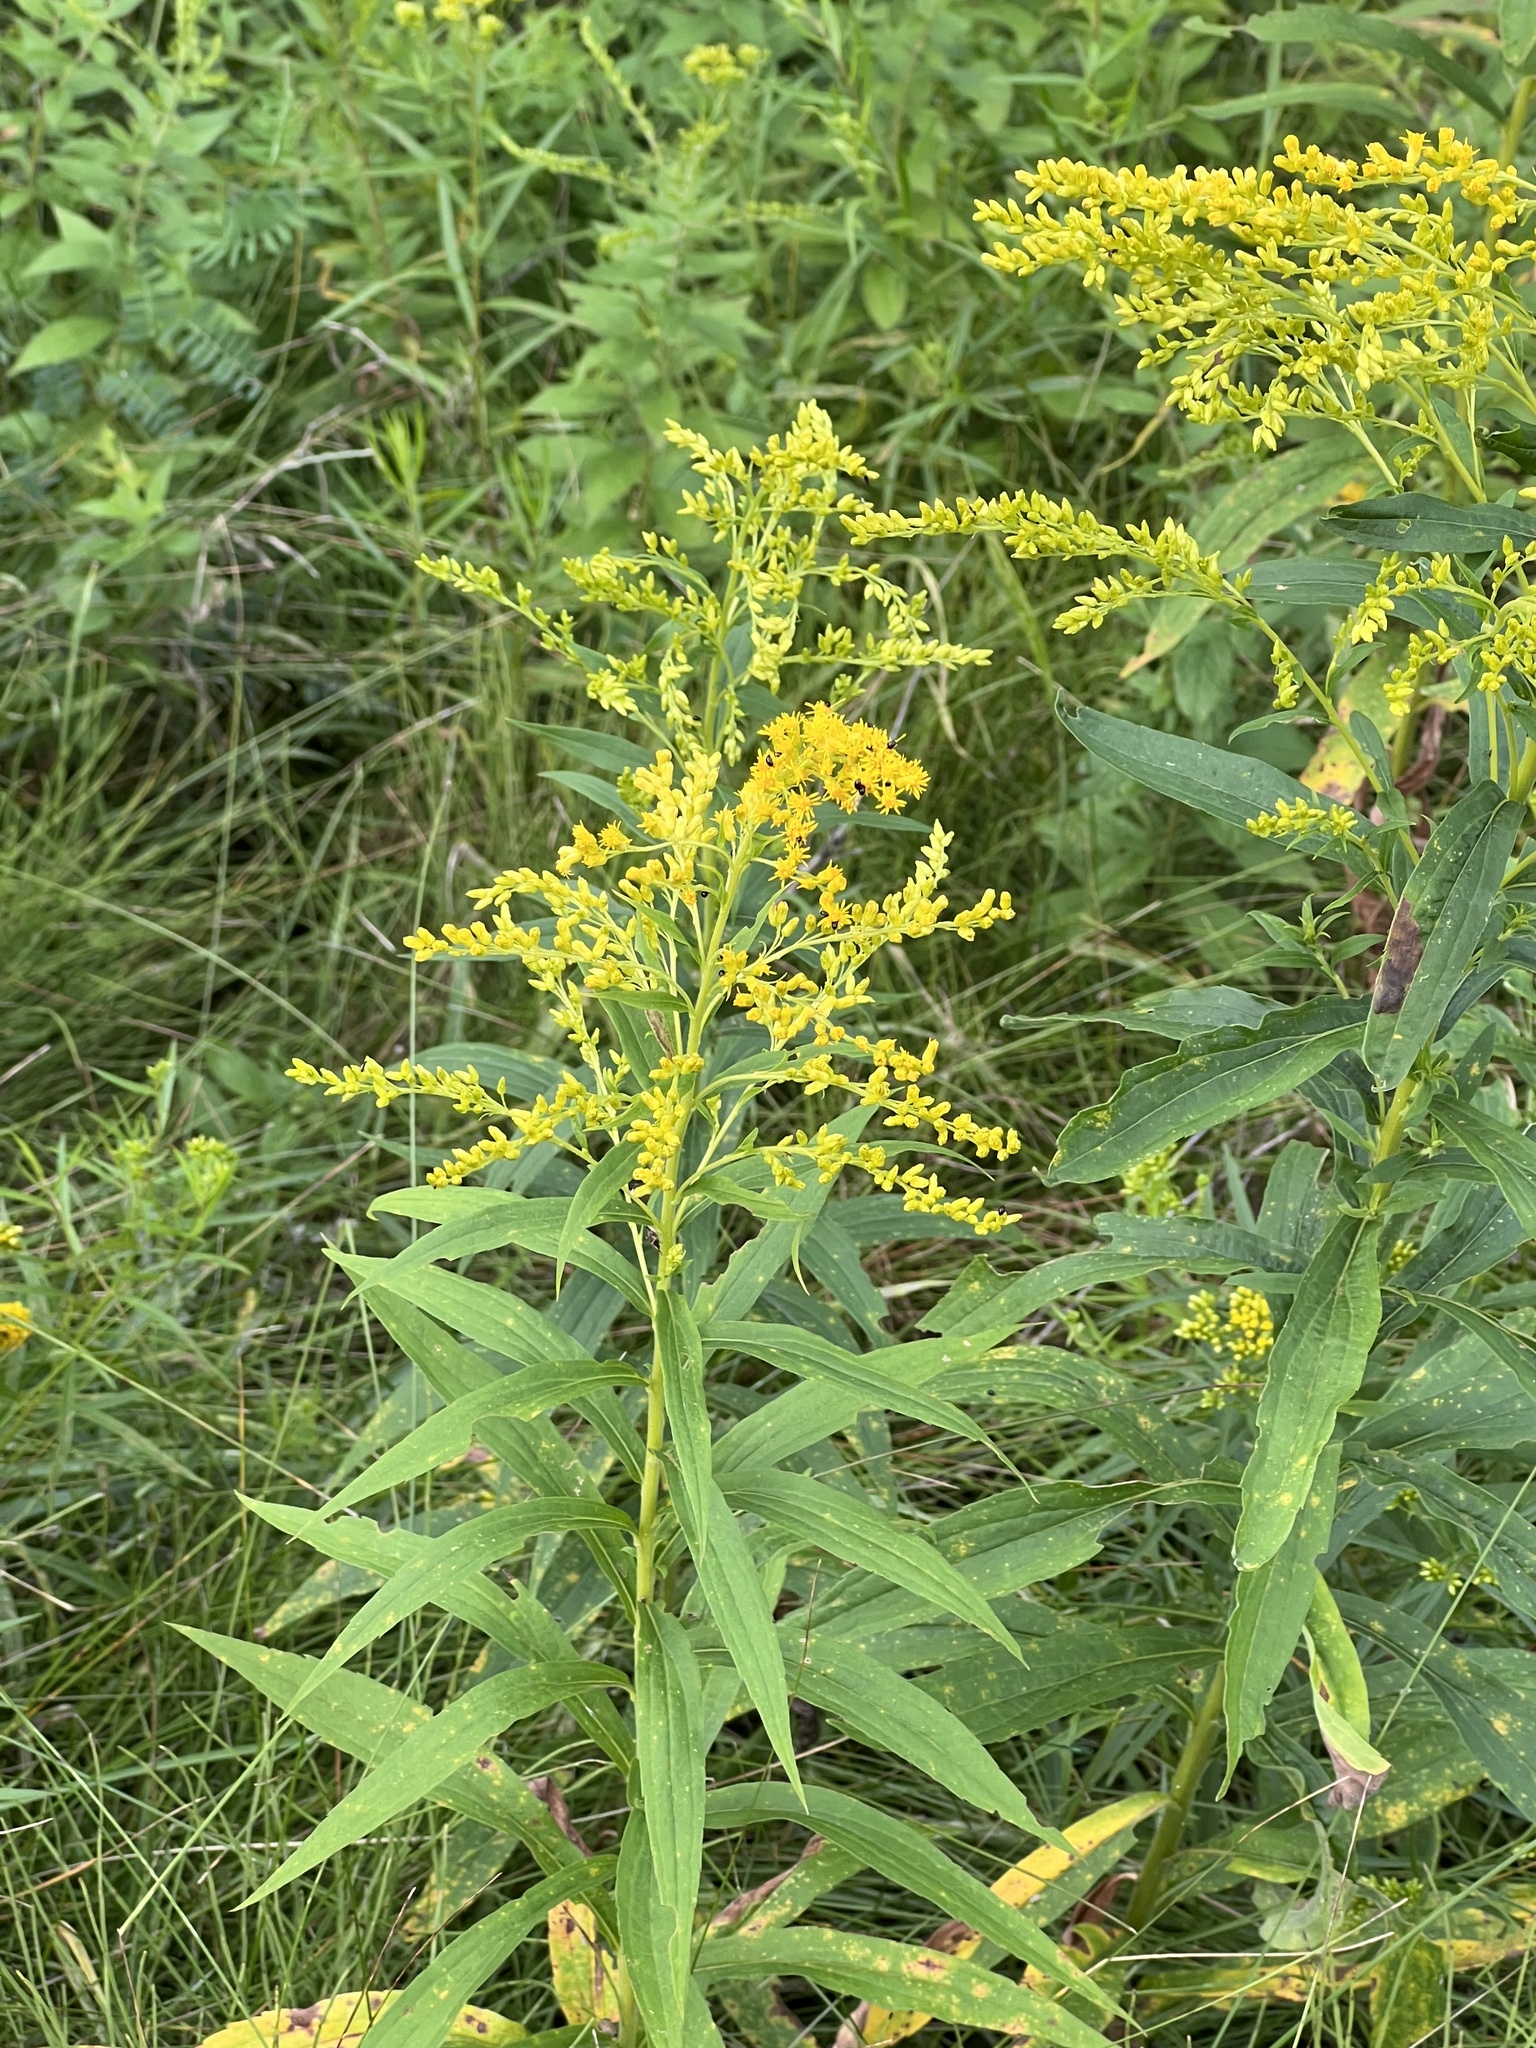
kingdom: Plantae
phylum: Tracheophyta
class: Magnoliopsida
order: Asterales
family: Asteraceae
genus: Solidago
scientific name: Solidago canadensis
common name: Canada goldenrod
